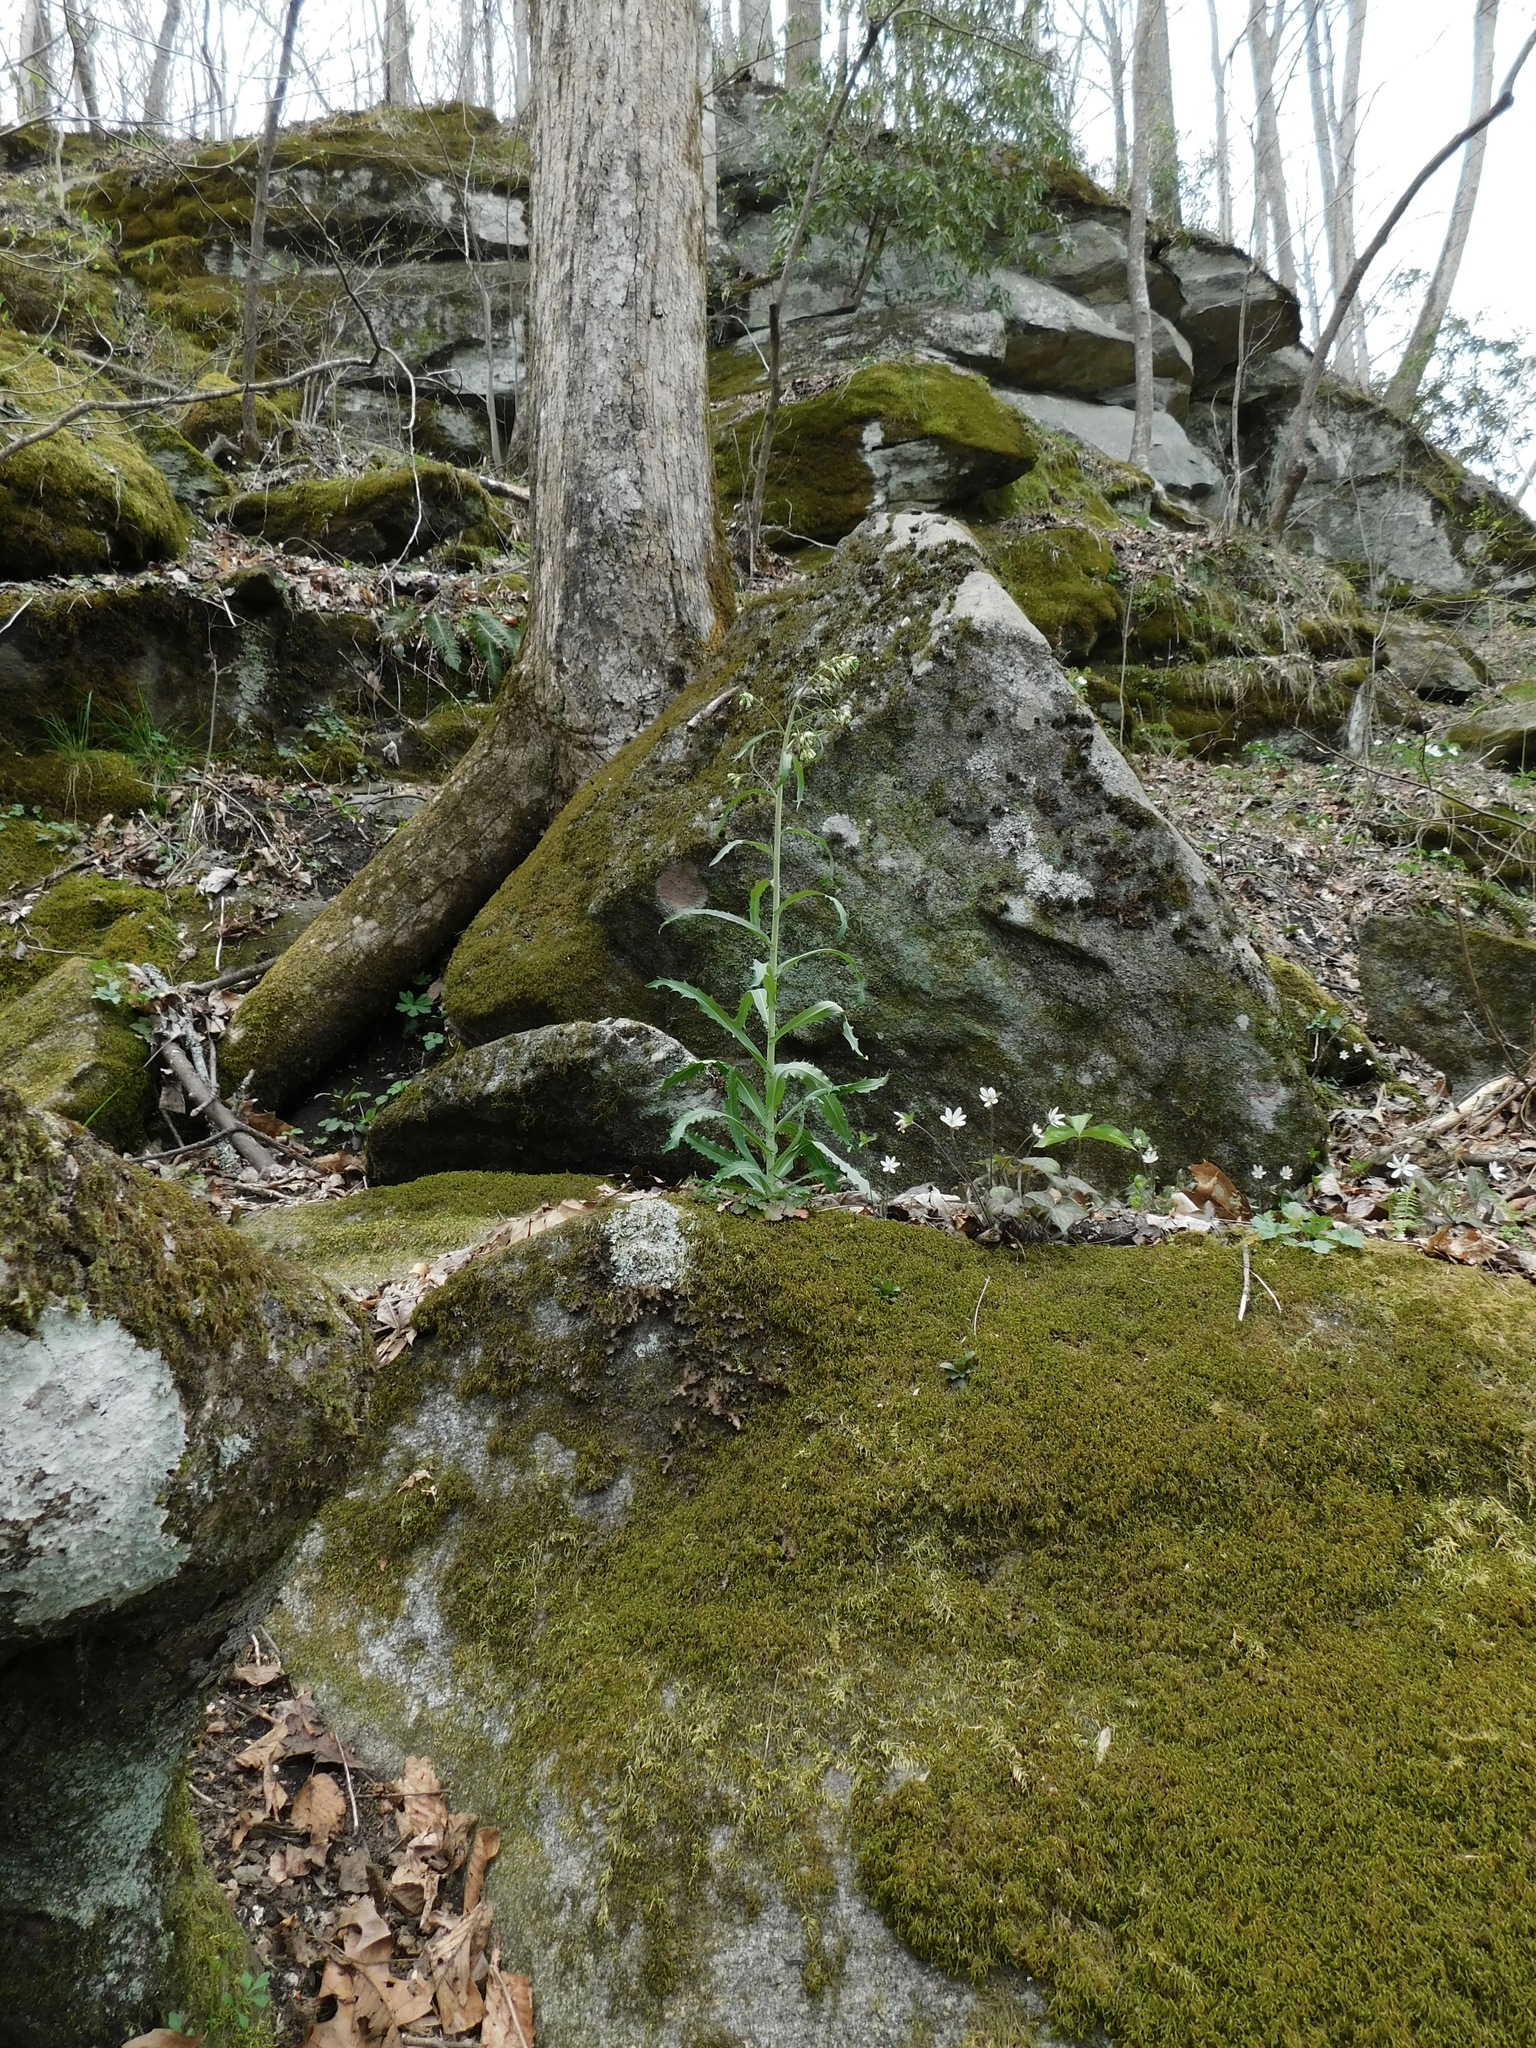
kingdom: Plantae
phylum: Tracheophyta
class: Magnoliopsida
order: Brassicales
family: Brassicaceae
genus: Borodinia
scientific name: Borodinia laevigata
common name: Smooth rockcress
